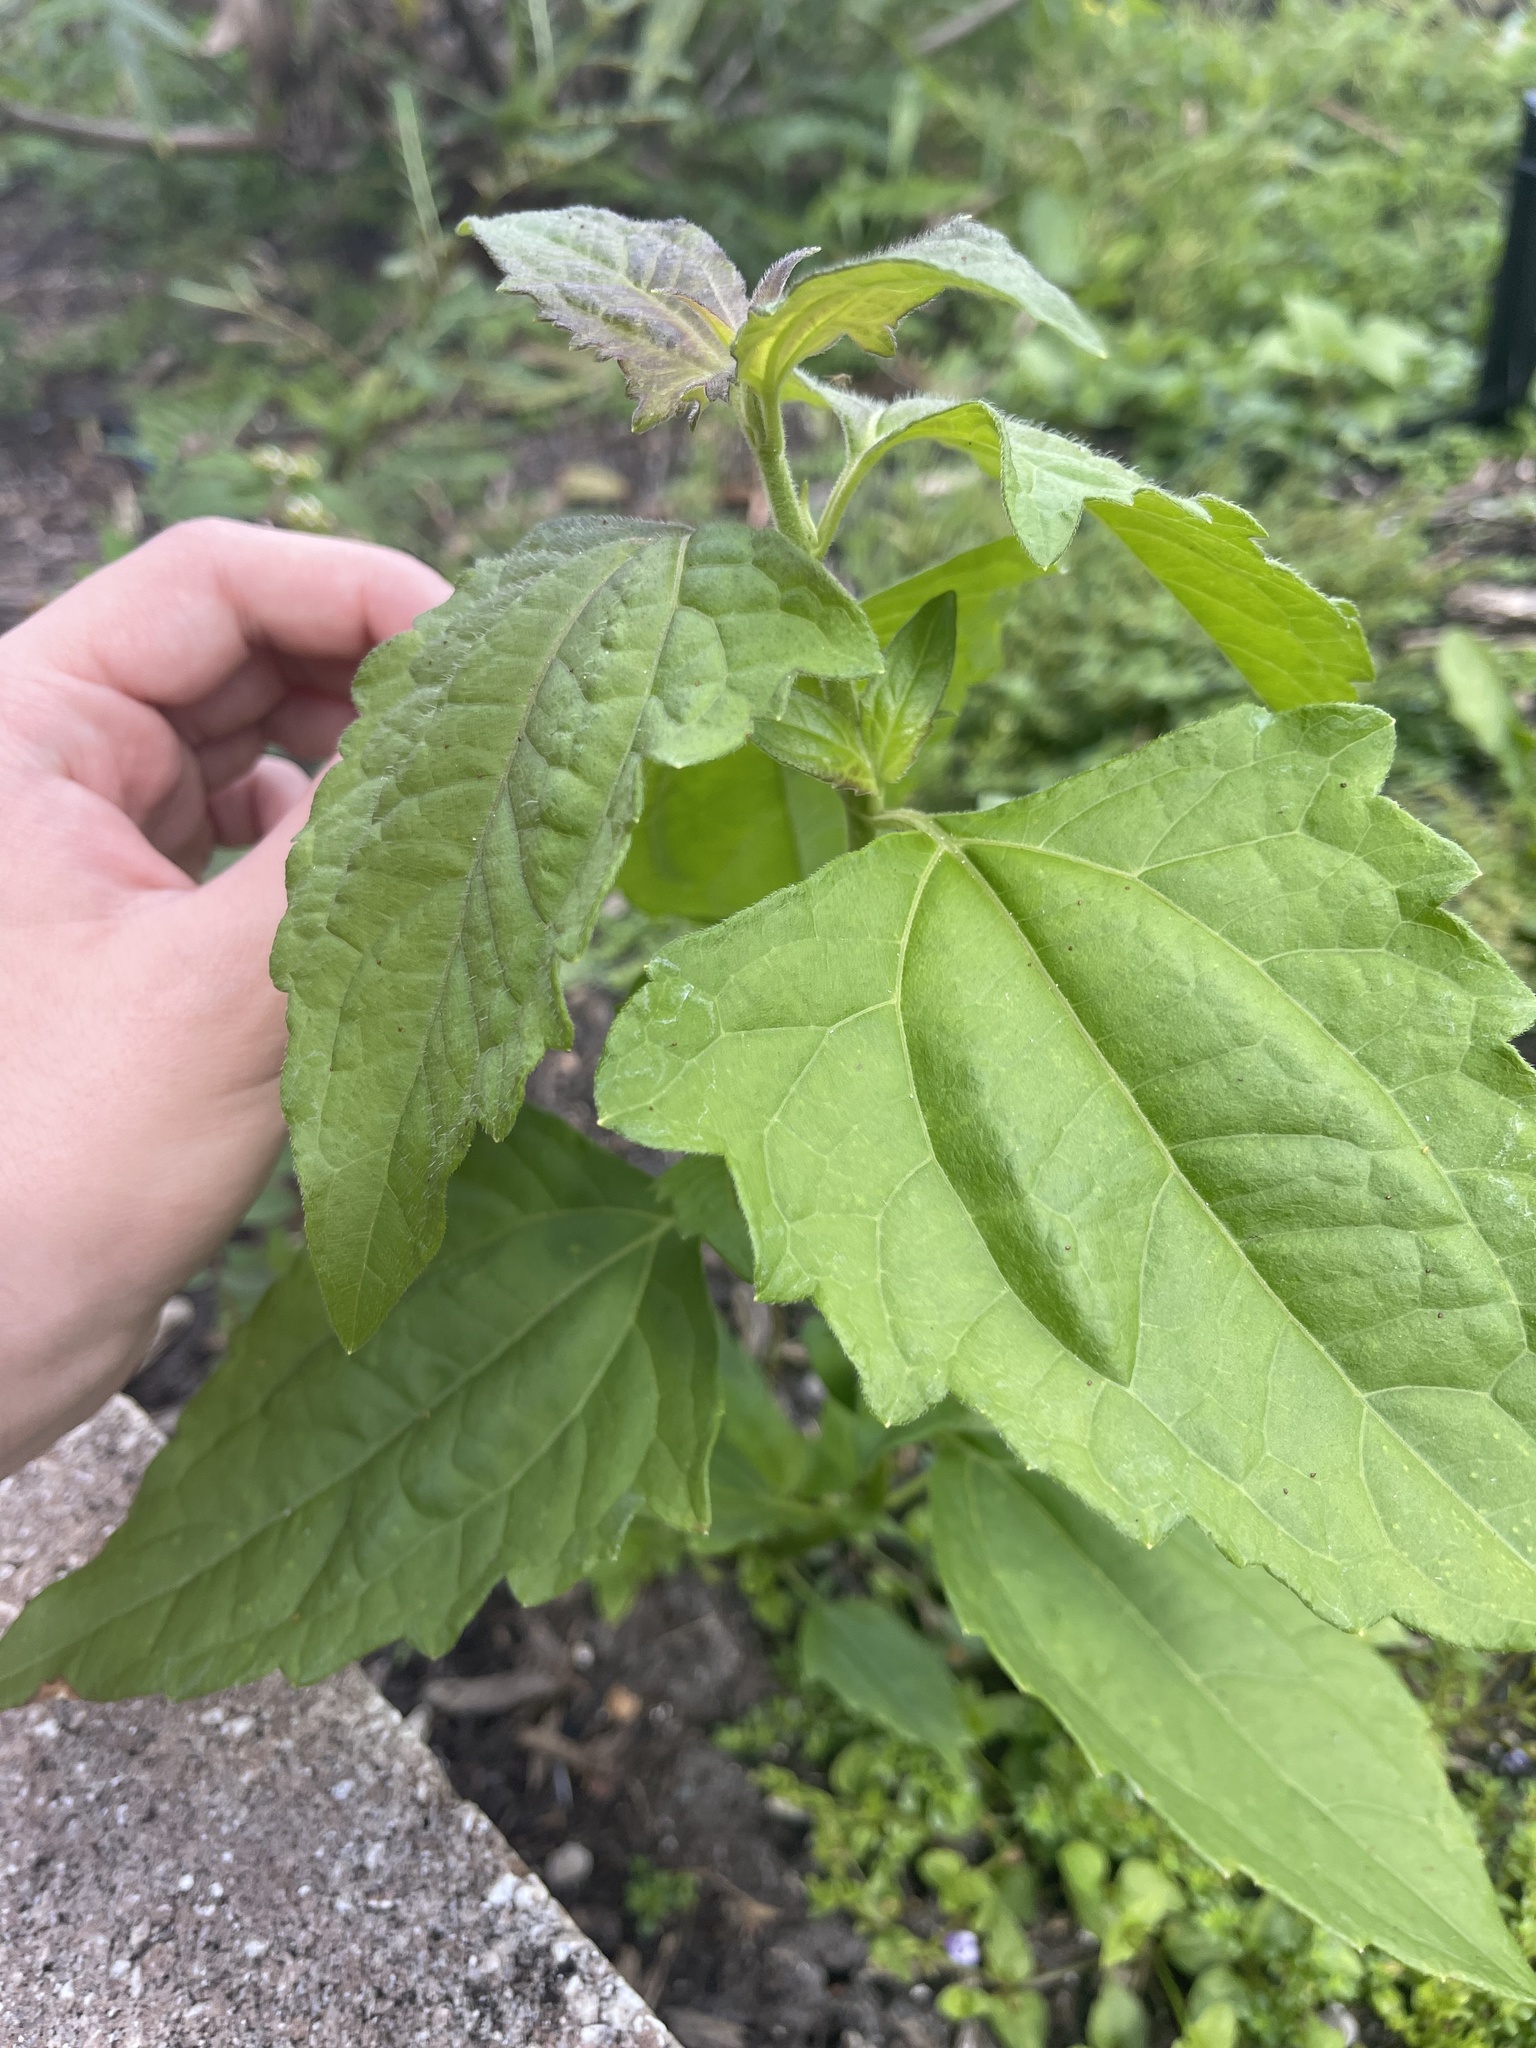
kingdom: Plantae
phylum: Tracheophyta
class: Magnoliopsida
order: Asterales
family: Asteraceae
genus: Chromolaena
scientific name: Chromolaena odorata
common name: Siamweed
